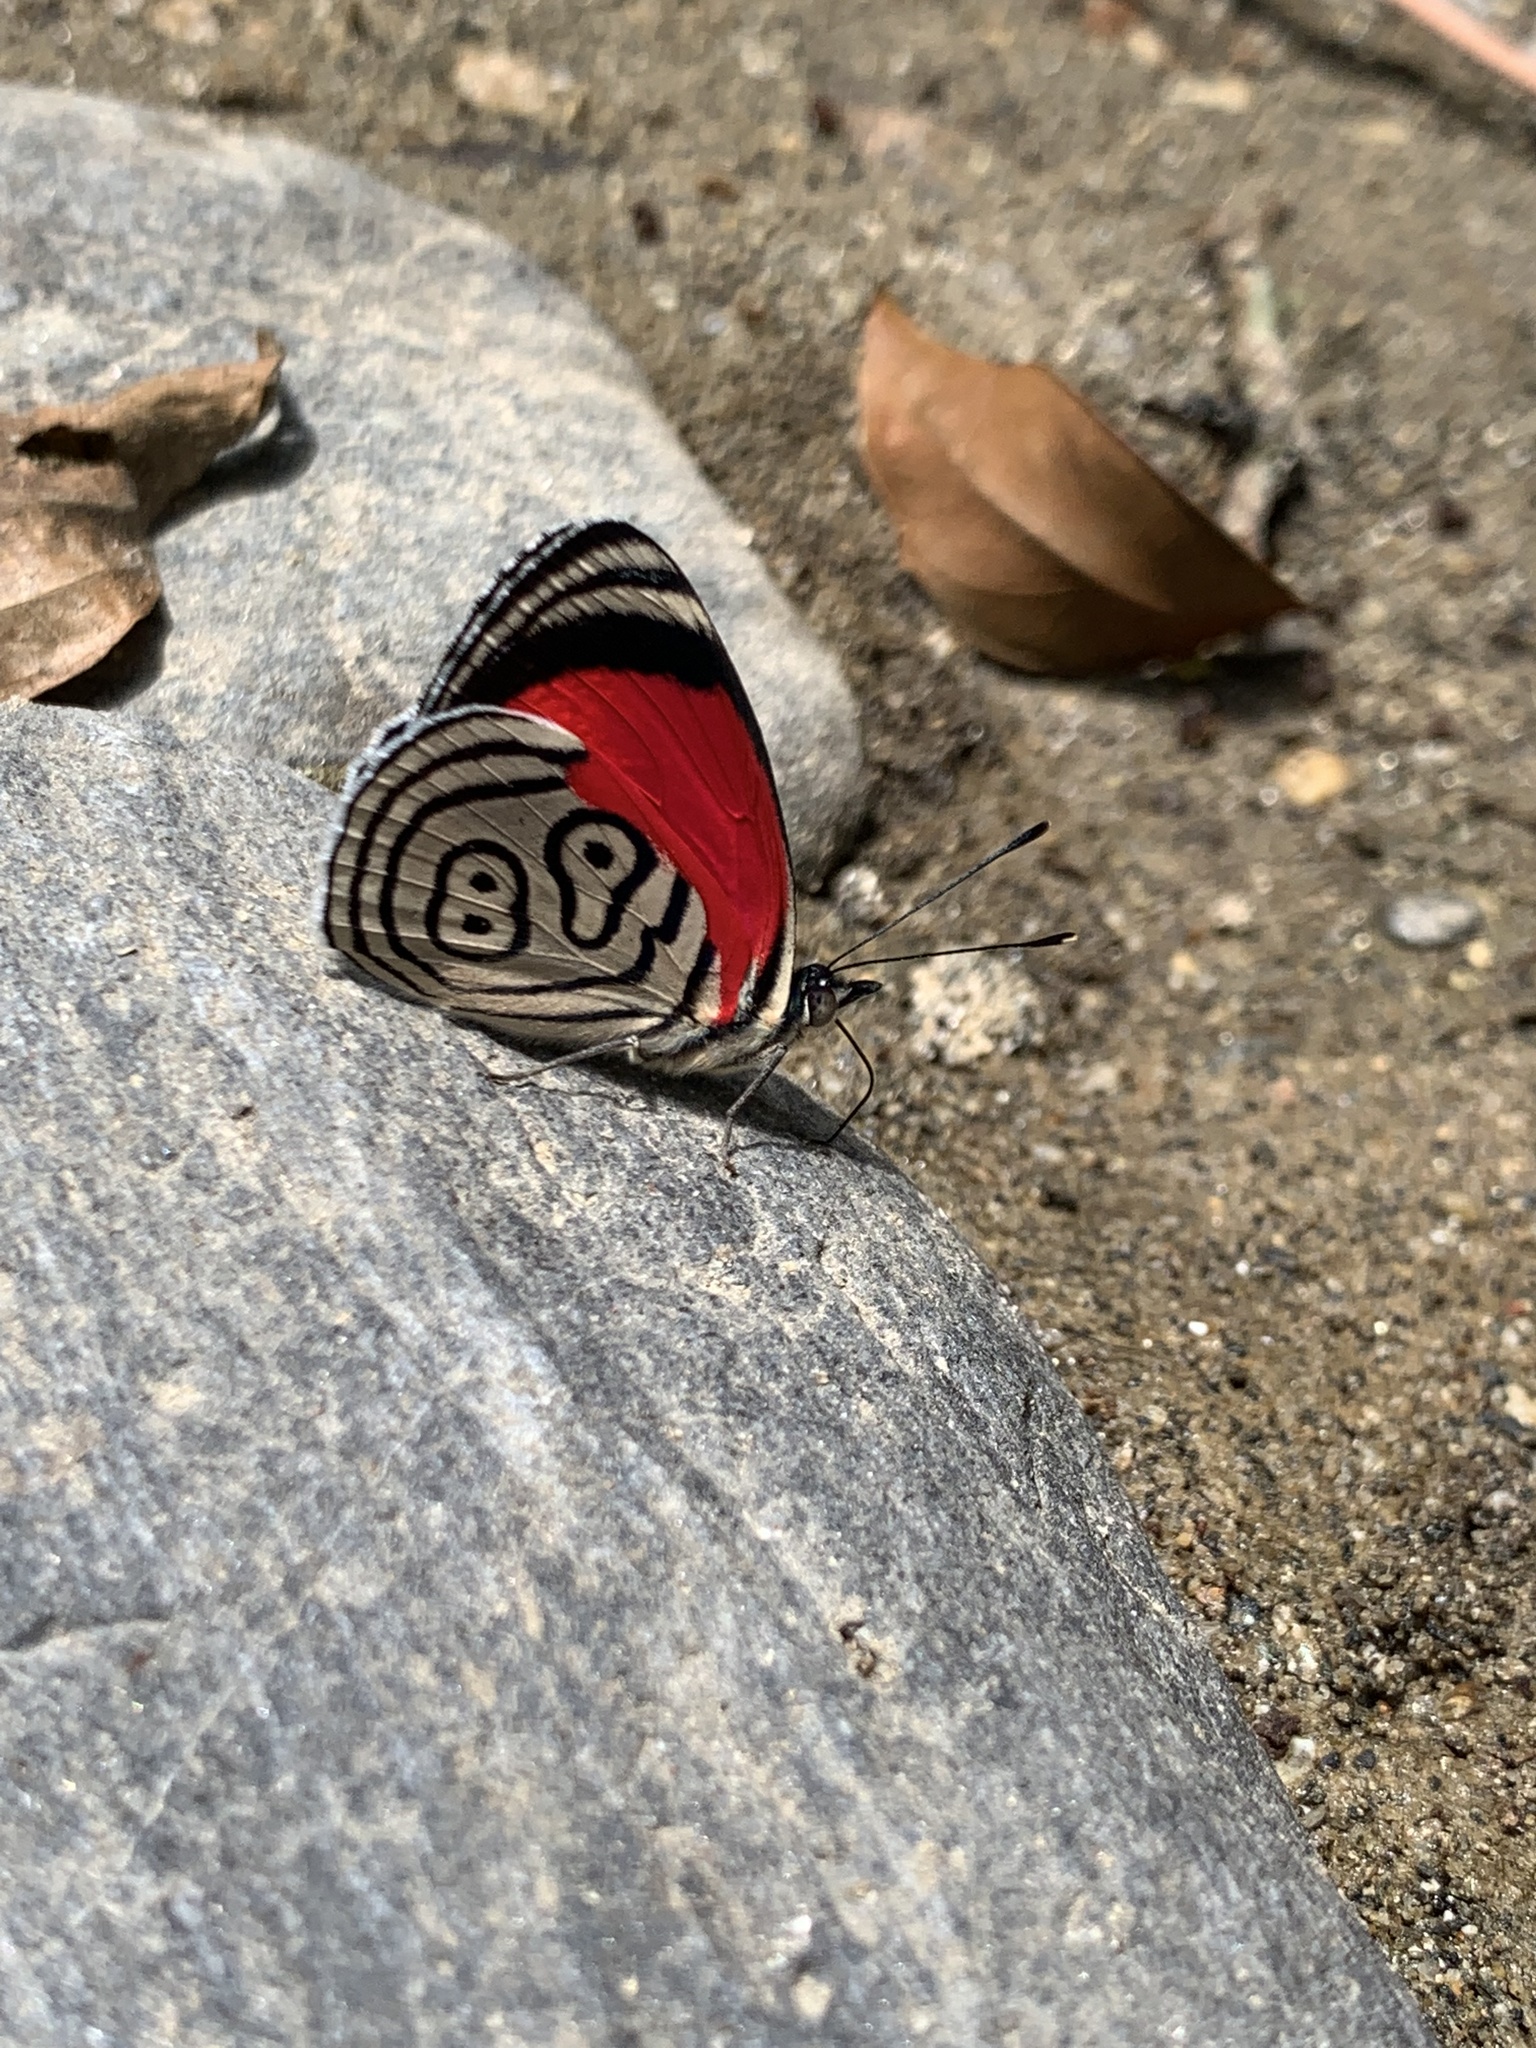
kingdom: Animalia
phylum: Arthropoda
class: Insecta
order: Lepidoptera
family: Nymphalidae
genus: Diaethria
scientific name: Diaethria clymena
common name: Widespread eighty-eight
